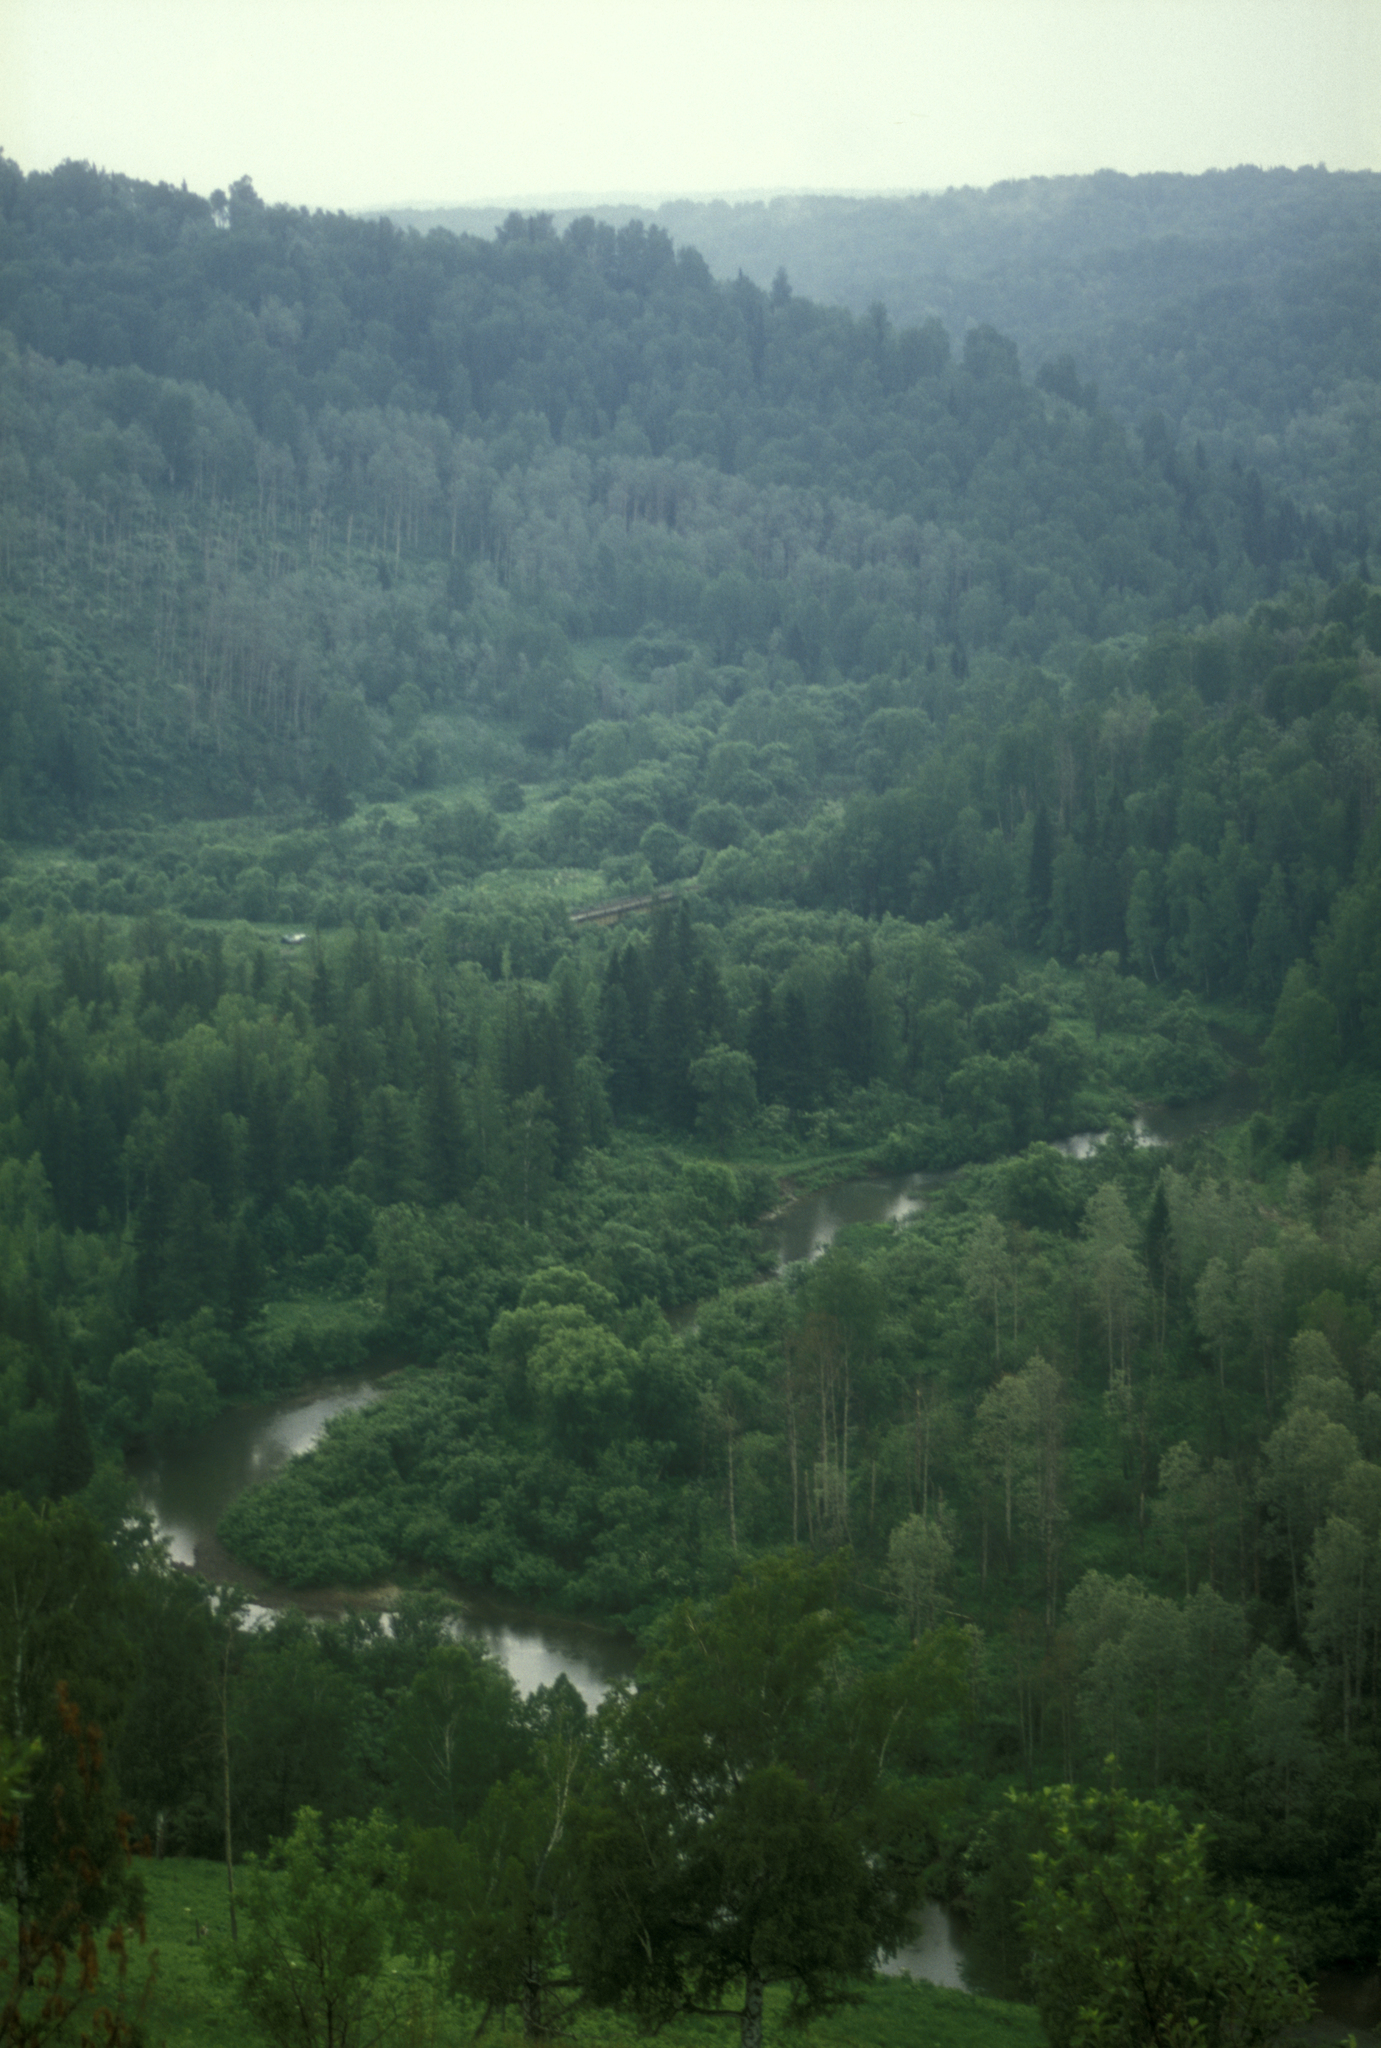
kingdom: Plantae
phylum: Tracheophyta
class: Pinopsida
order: Pinales
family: Pinaceae
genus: Abies
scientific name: Abies sibirica
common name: Siberian fir
